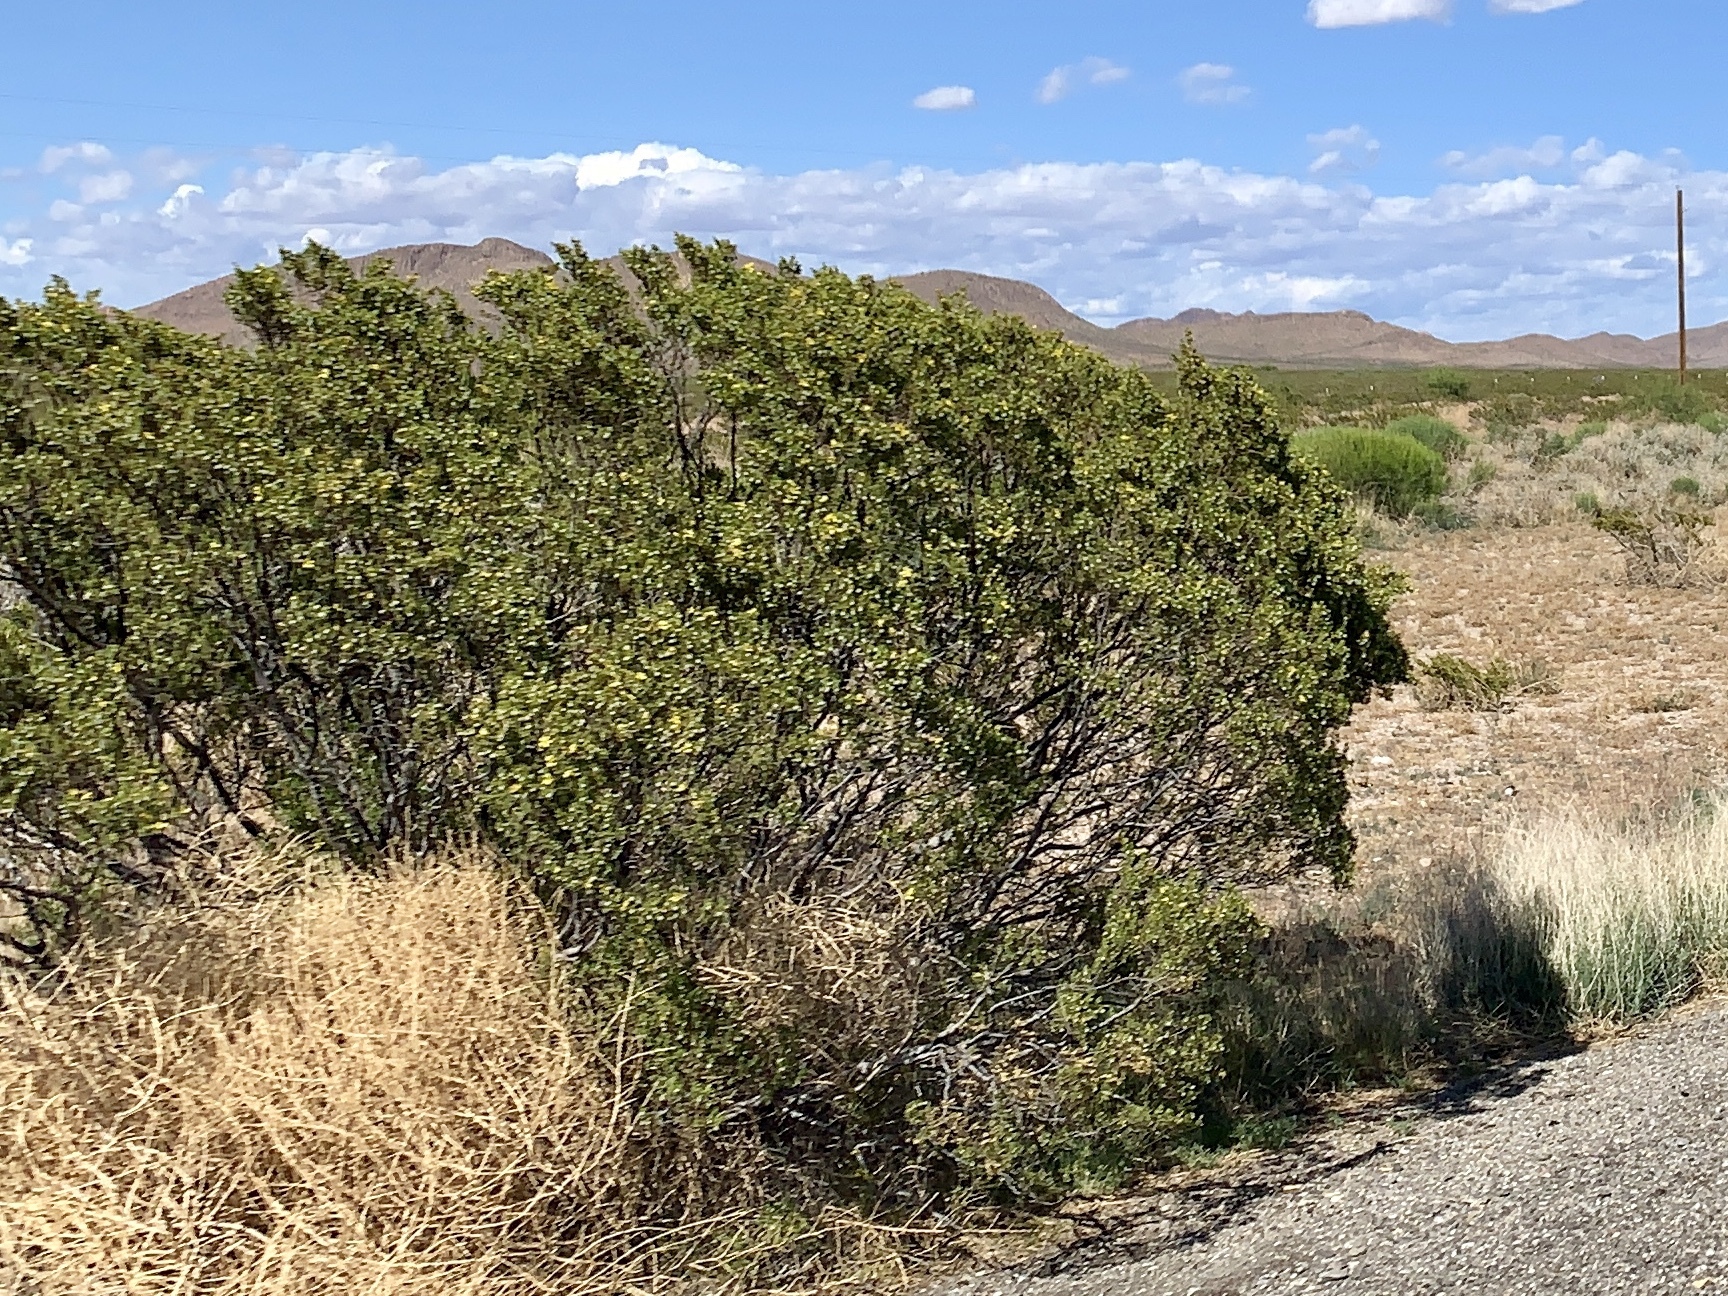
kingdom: Plantae
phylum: Tracheophyta
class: Magnoliopsida
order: Zygophyllales
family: Zygophyllaceae
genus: Larrea
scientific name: Larrea tridentata
